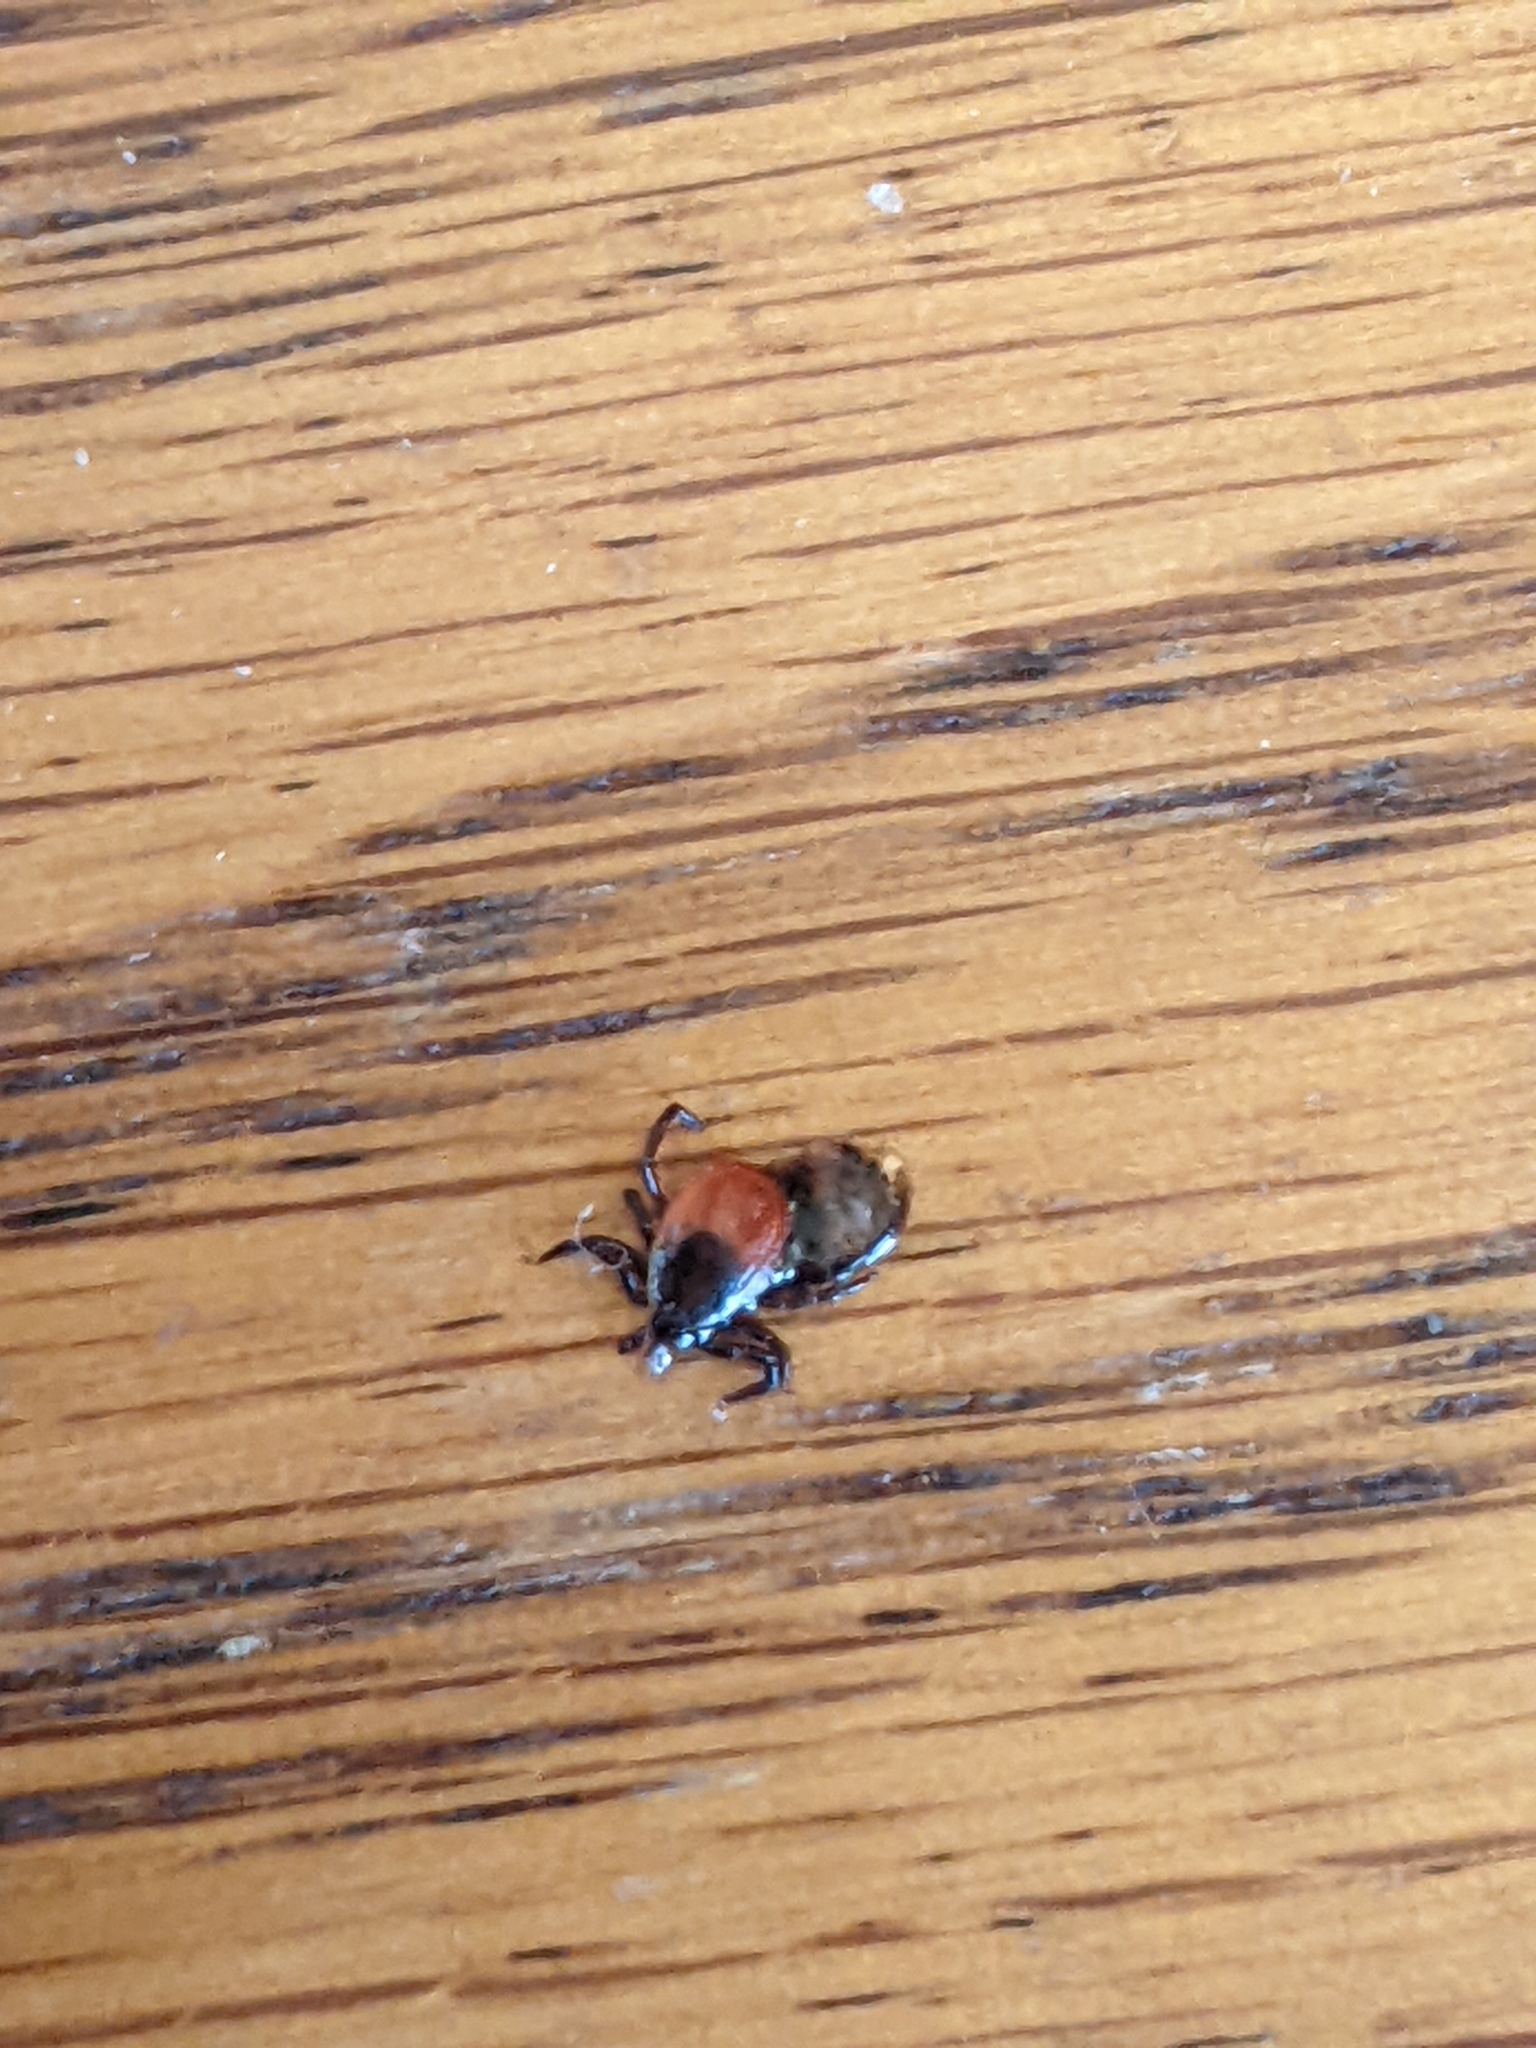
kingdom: Animalia
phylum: Arthropoda
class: Arachnida
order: Ixodida
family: Ixodidae
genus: Ixodes
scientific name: Ixodes scapularis
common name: Black legged tick
